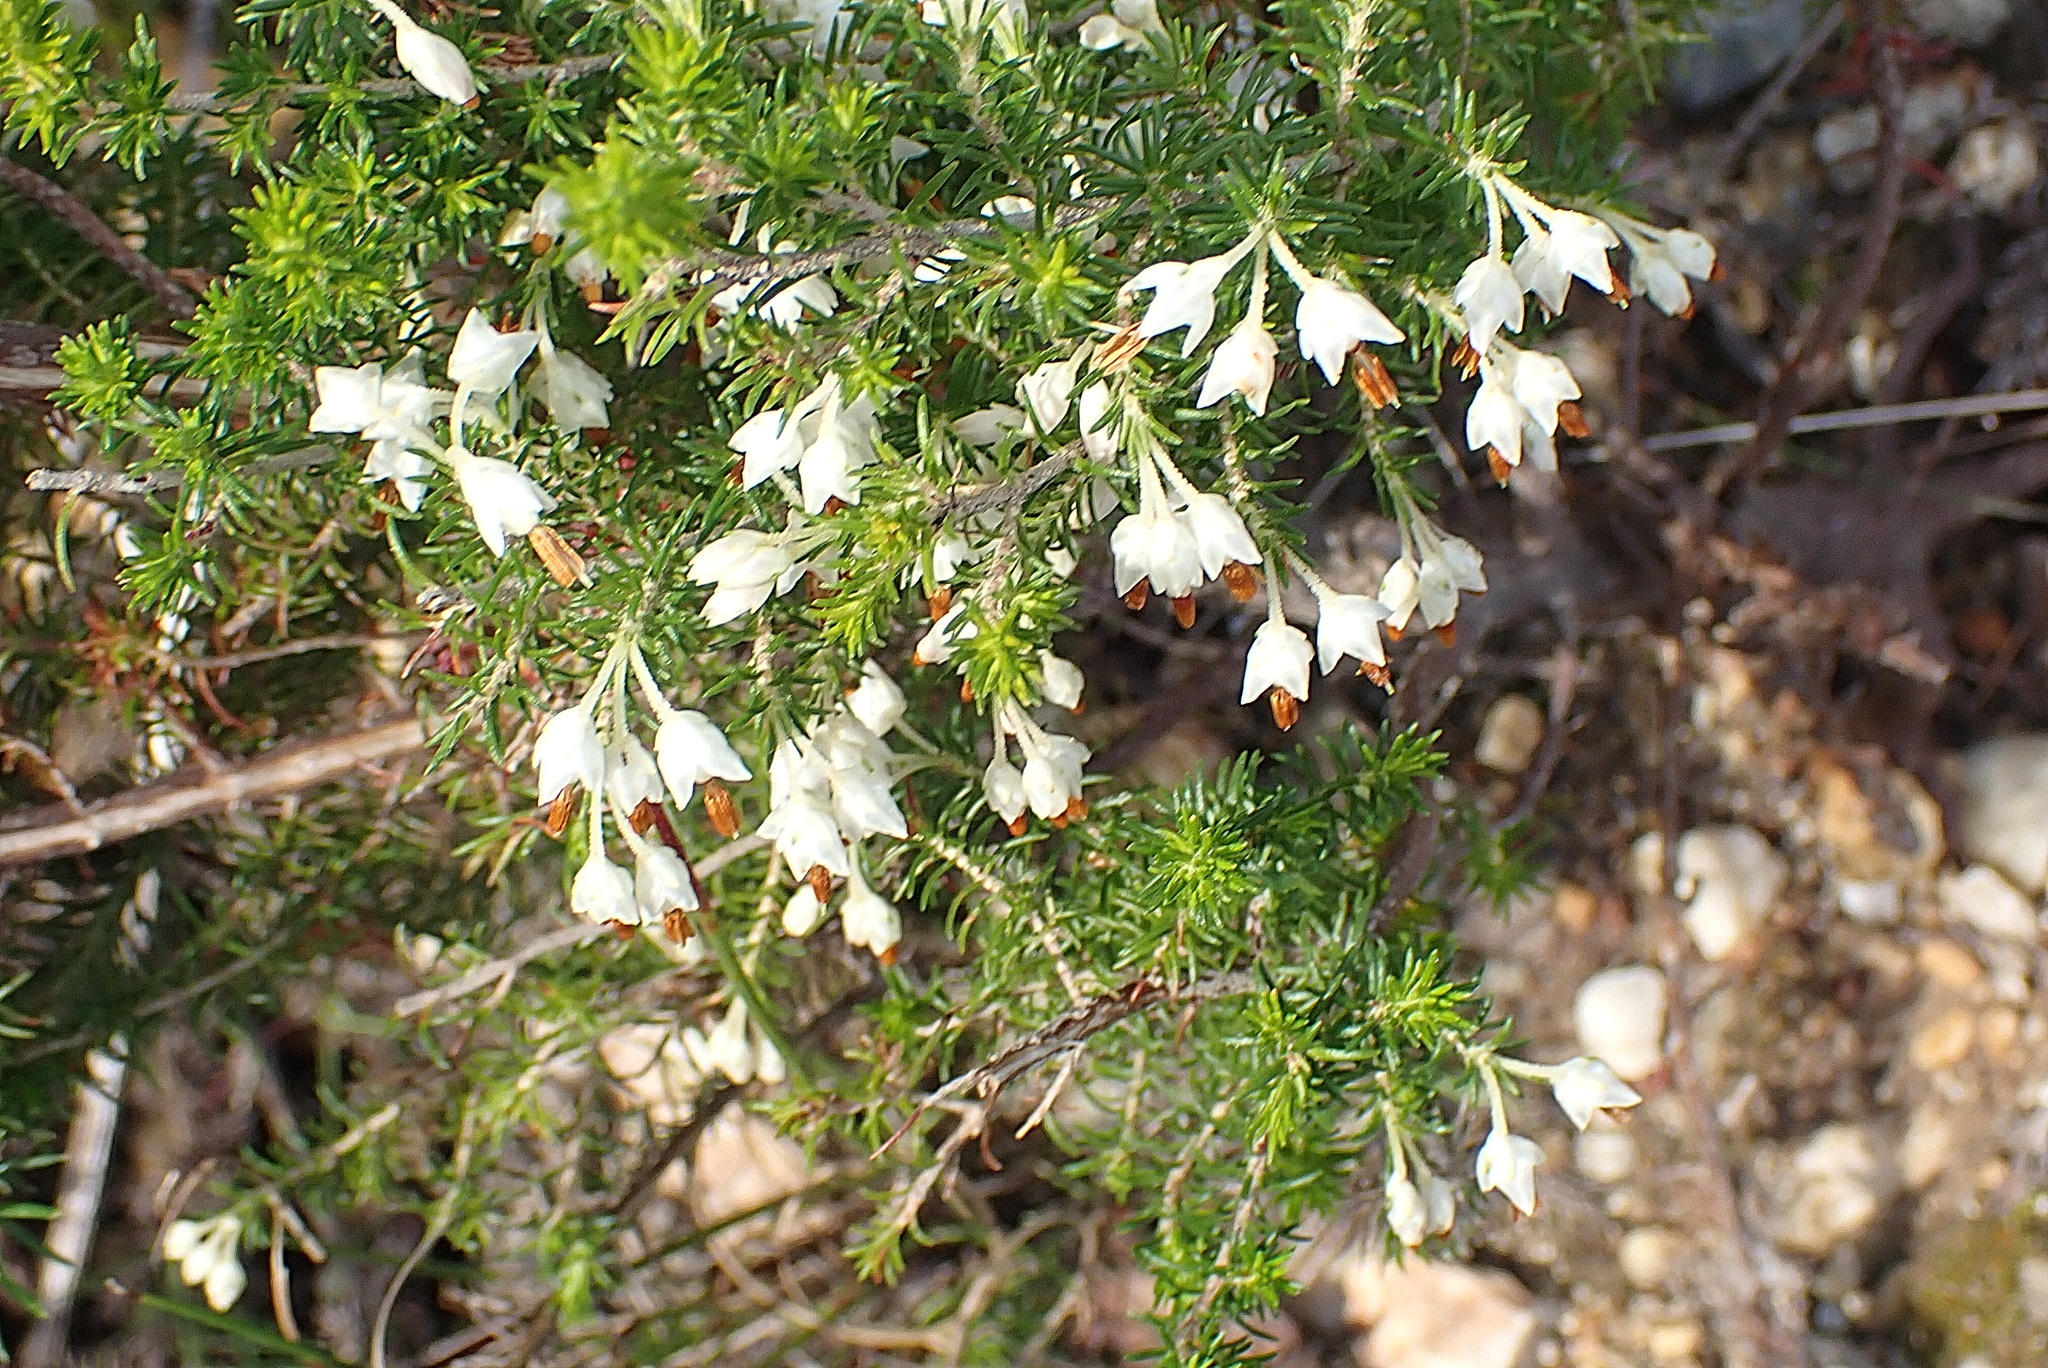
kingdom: Plantae
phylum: Tracheophyta
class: Magnoliopsida
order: Ericales
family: Ericaceae
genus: Erica
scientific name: Erica intermedia
